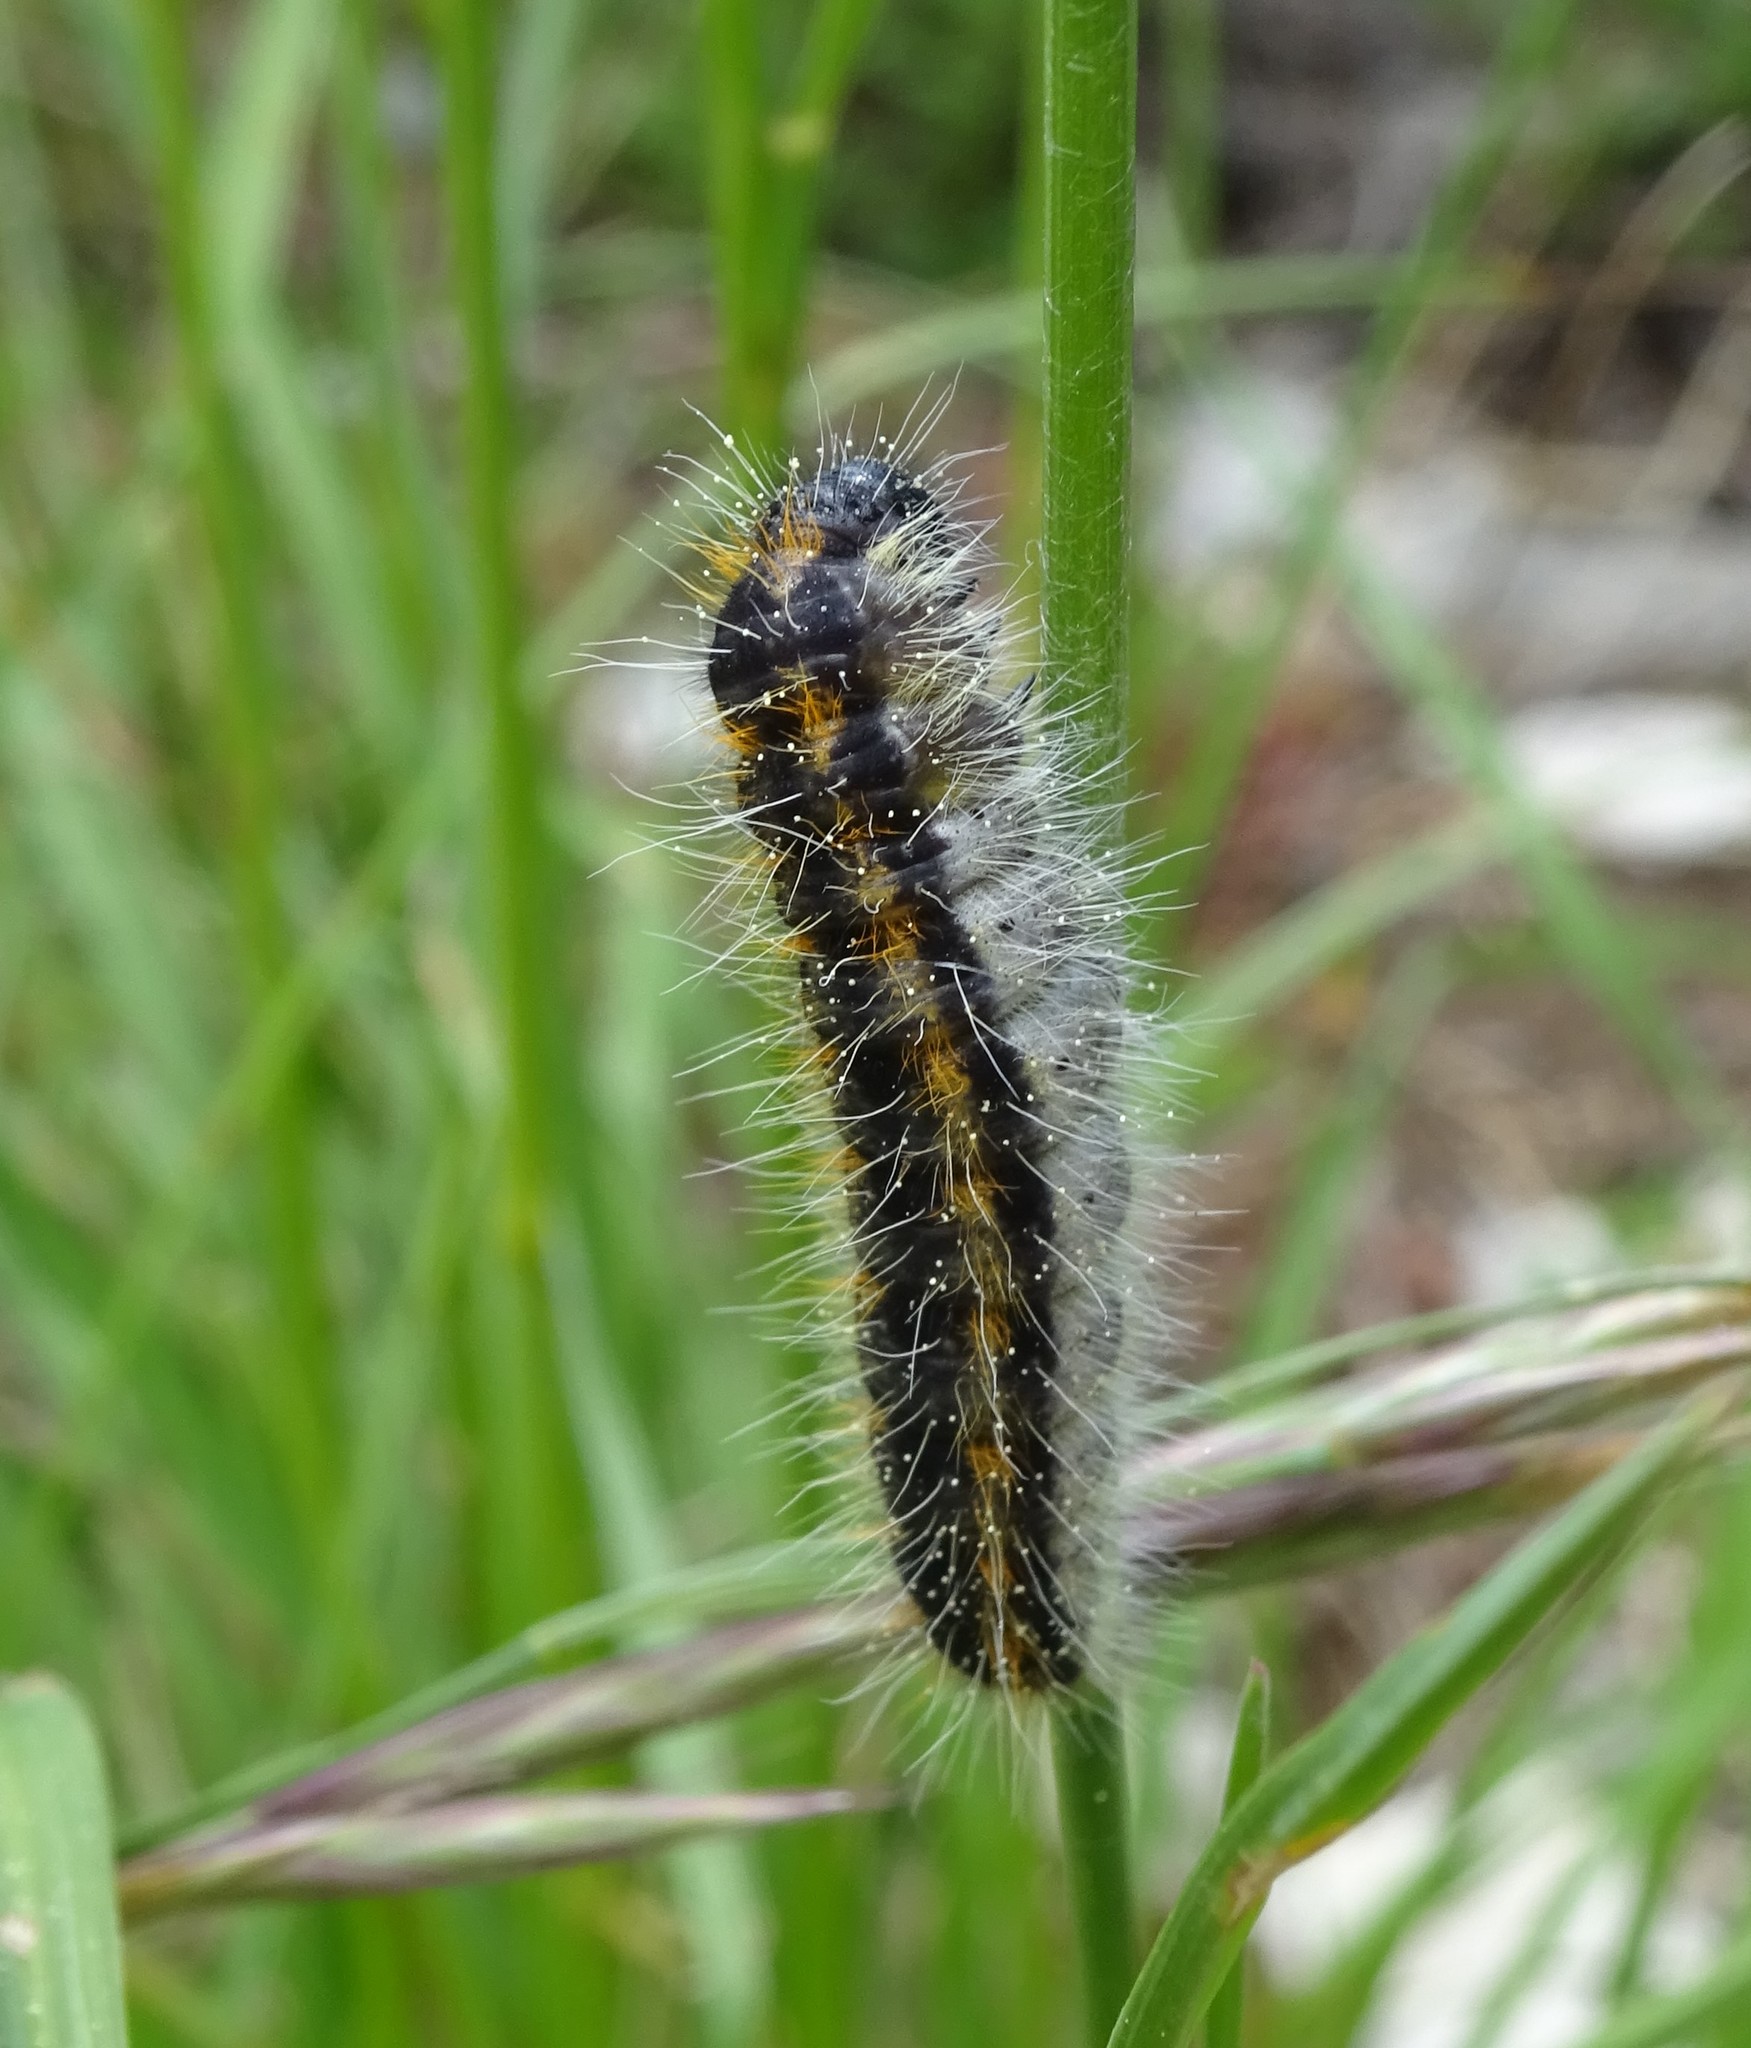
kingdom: Animalia
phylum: Arthropoda
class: Insecta
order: Lepidoptera
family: Pieridae
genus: Aporia
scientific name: Aporia crataegi
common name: Black-veined white
